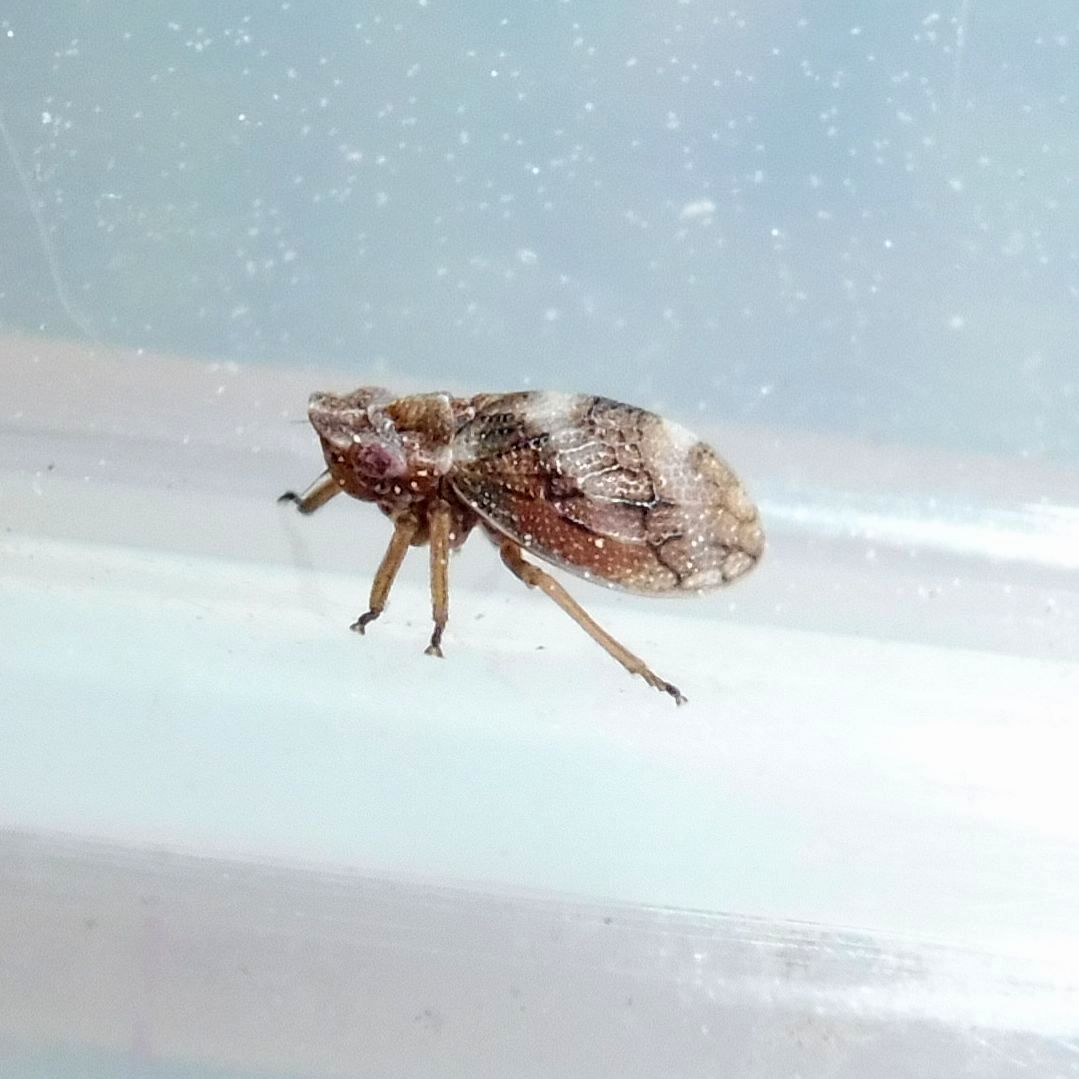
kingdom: Animalia
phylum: Arthropoda
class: Insecta
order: Hemiptera
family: Cicadellidae
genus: Ulopa
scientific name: Ulopa reticulata
